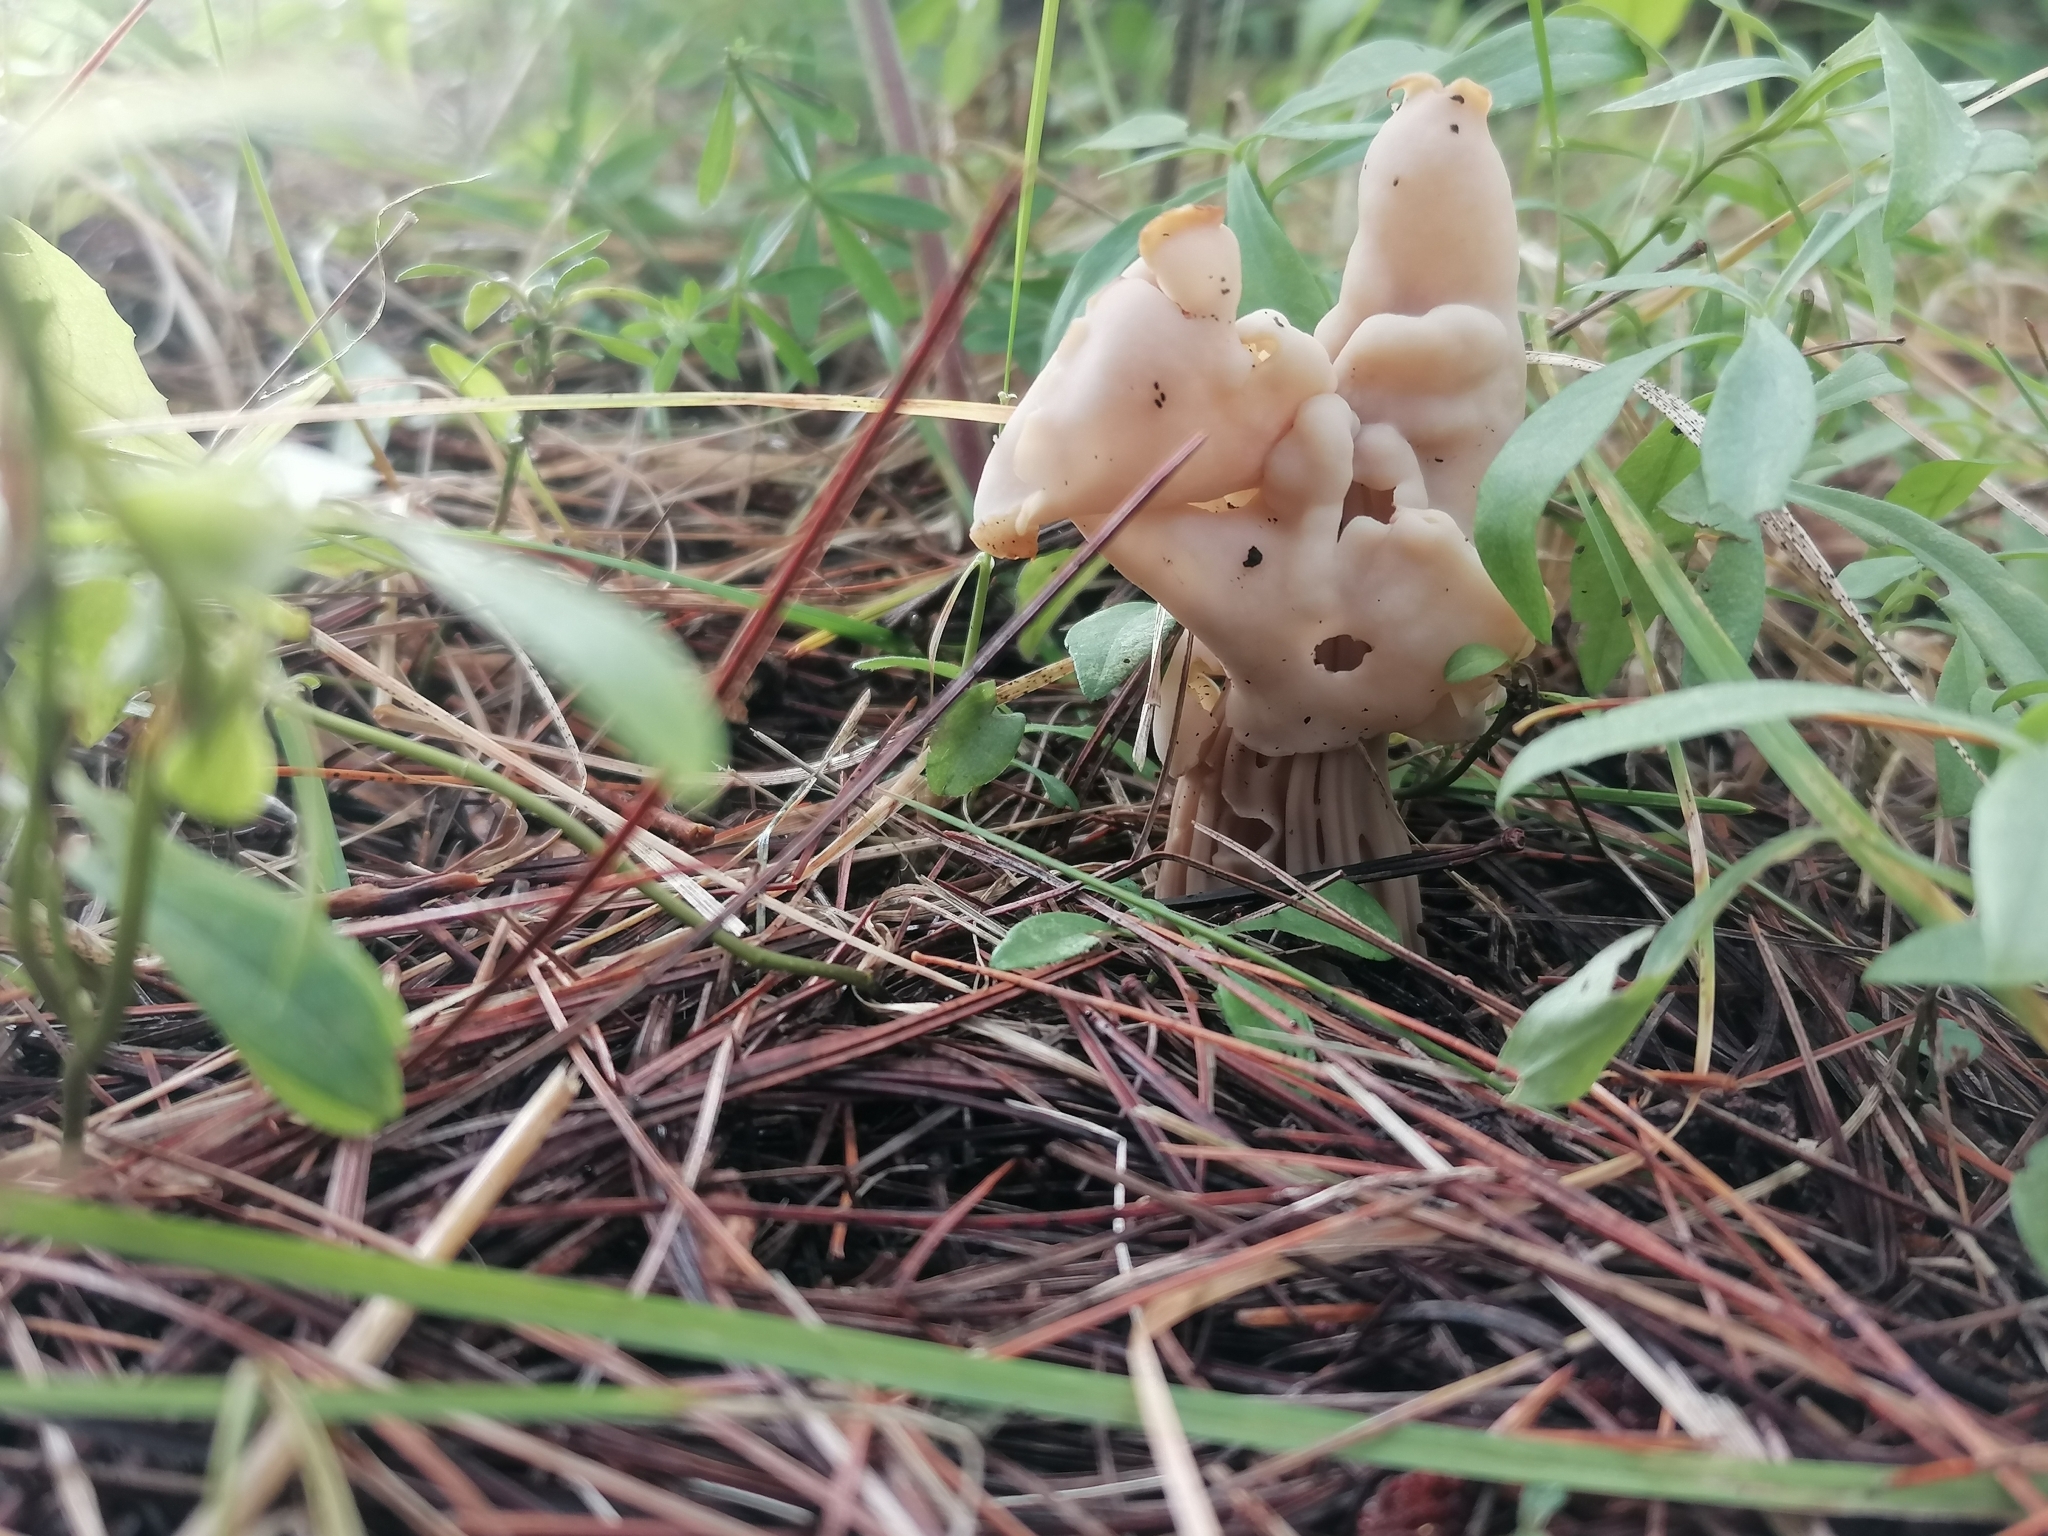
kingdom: Fungi
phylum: Ascomycota
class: Pezizomycetes
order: Pezizales
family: Helvellaceae
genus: Helvella
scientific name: Helvella crispa
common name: White saddle
